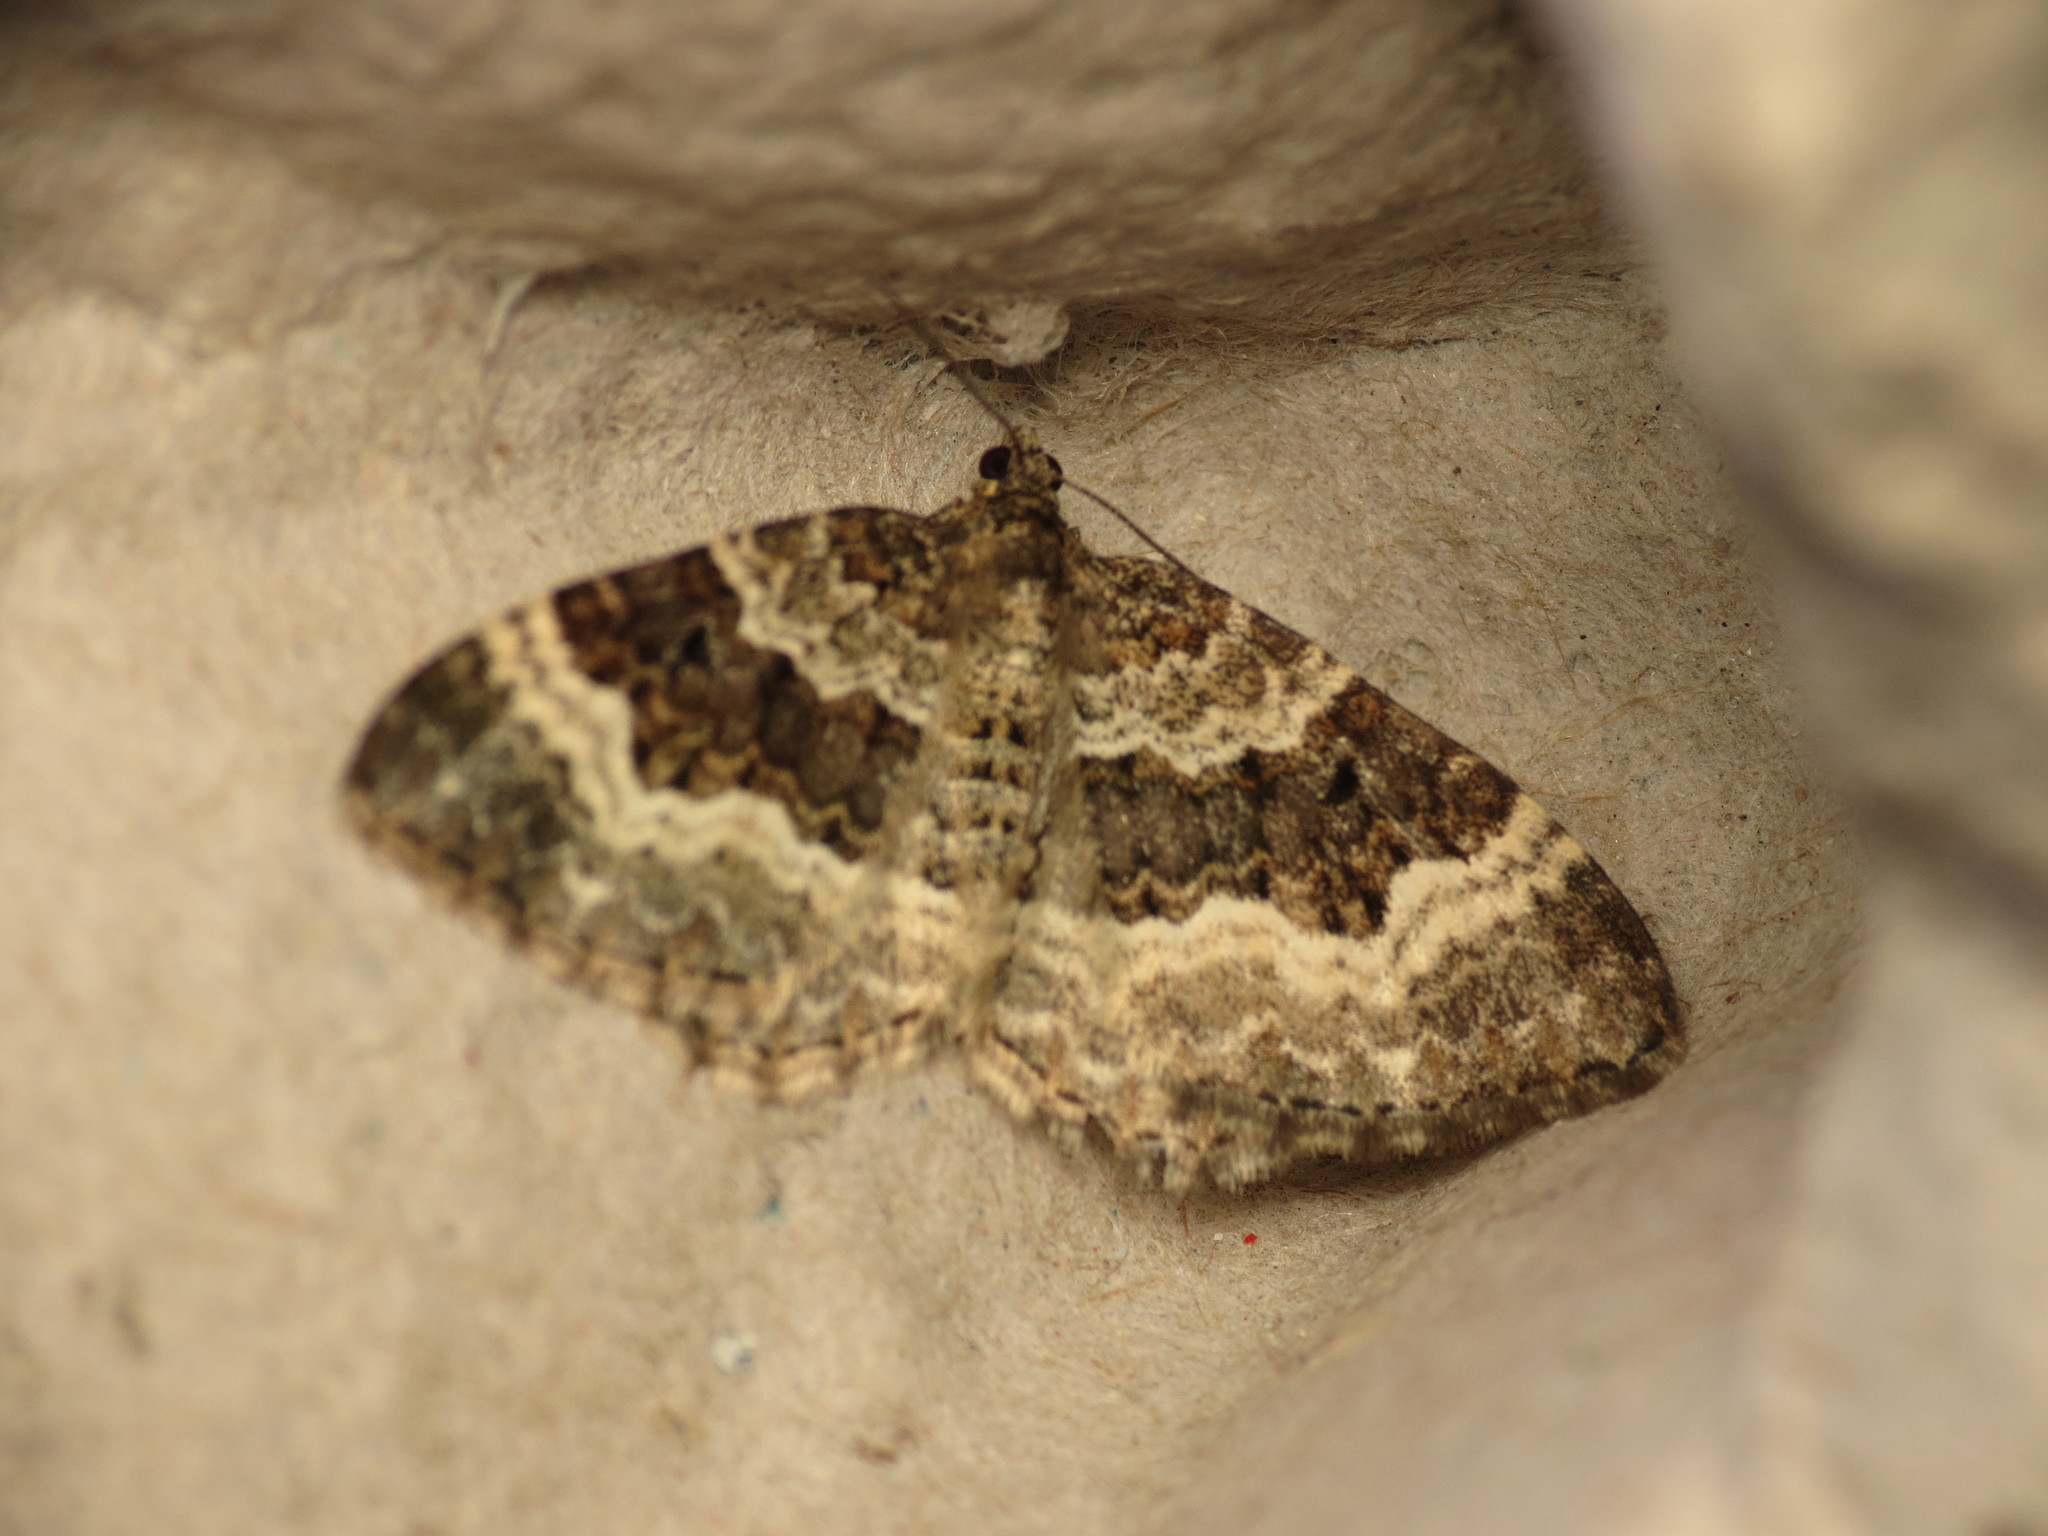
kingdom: Animalia
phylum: Arthropoda
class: Insecta
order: Lepidoptera
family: Geometridae
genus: Epirrhoe
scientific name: Epirrhoe alternata
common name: Common carpet
